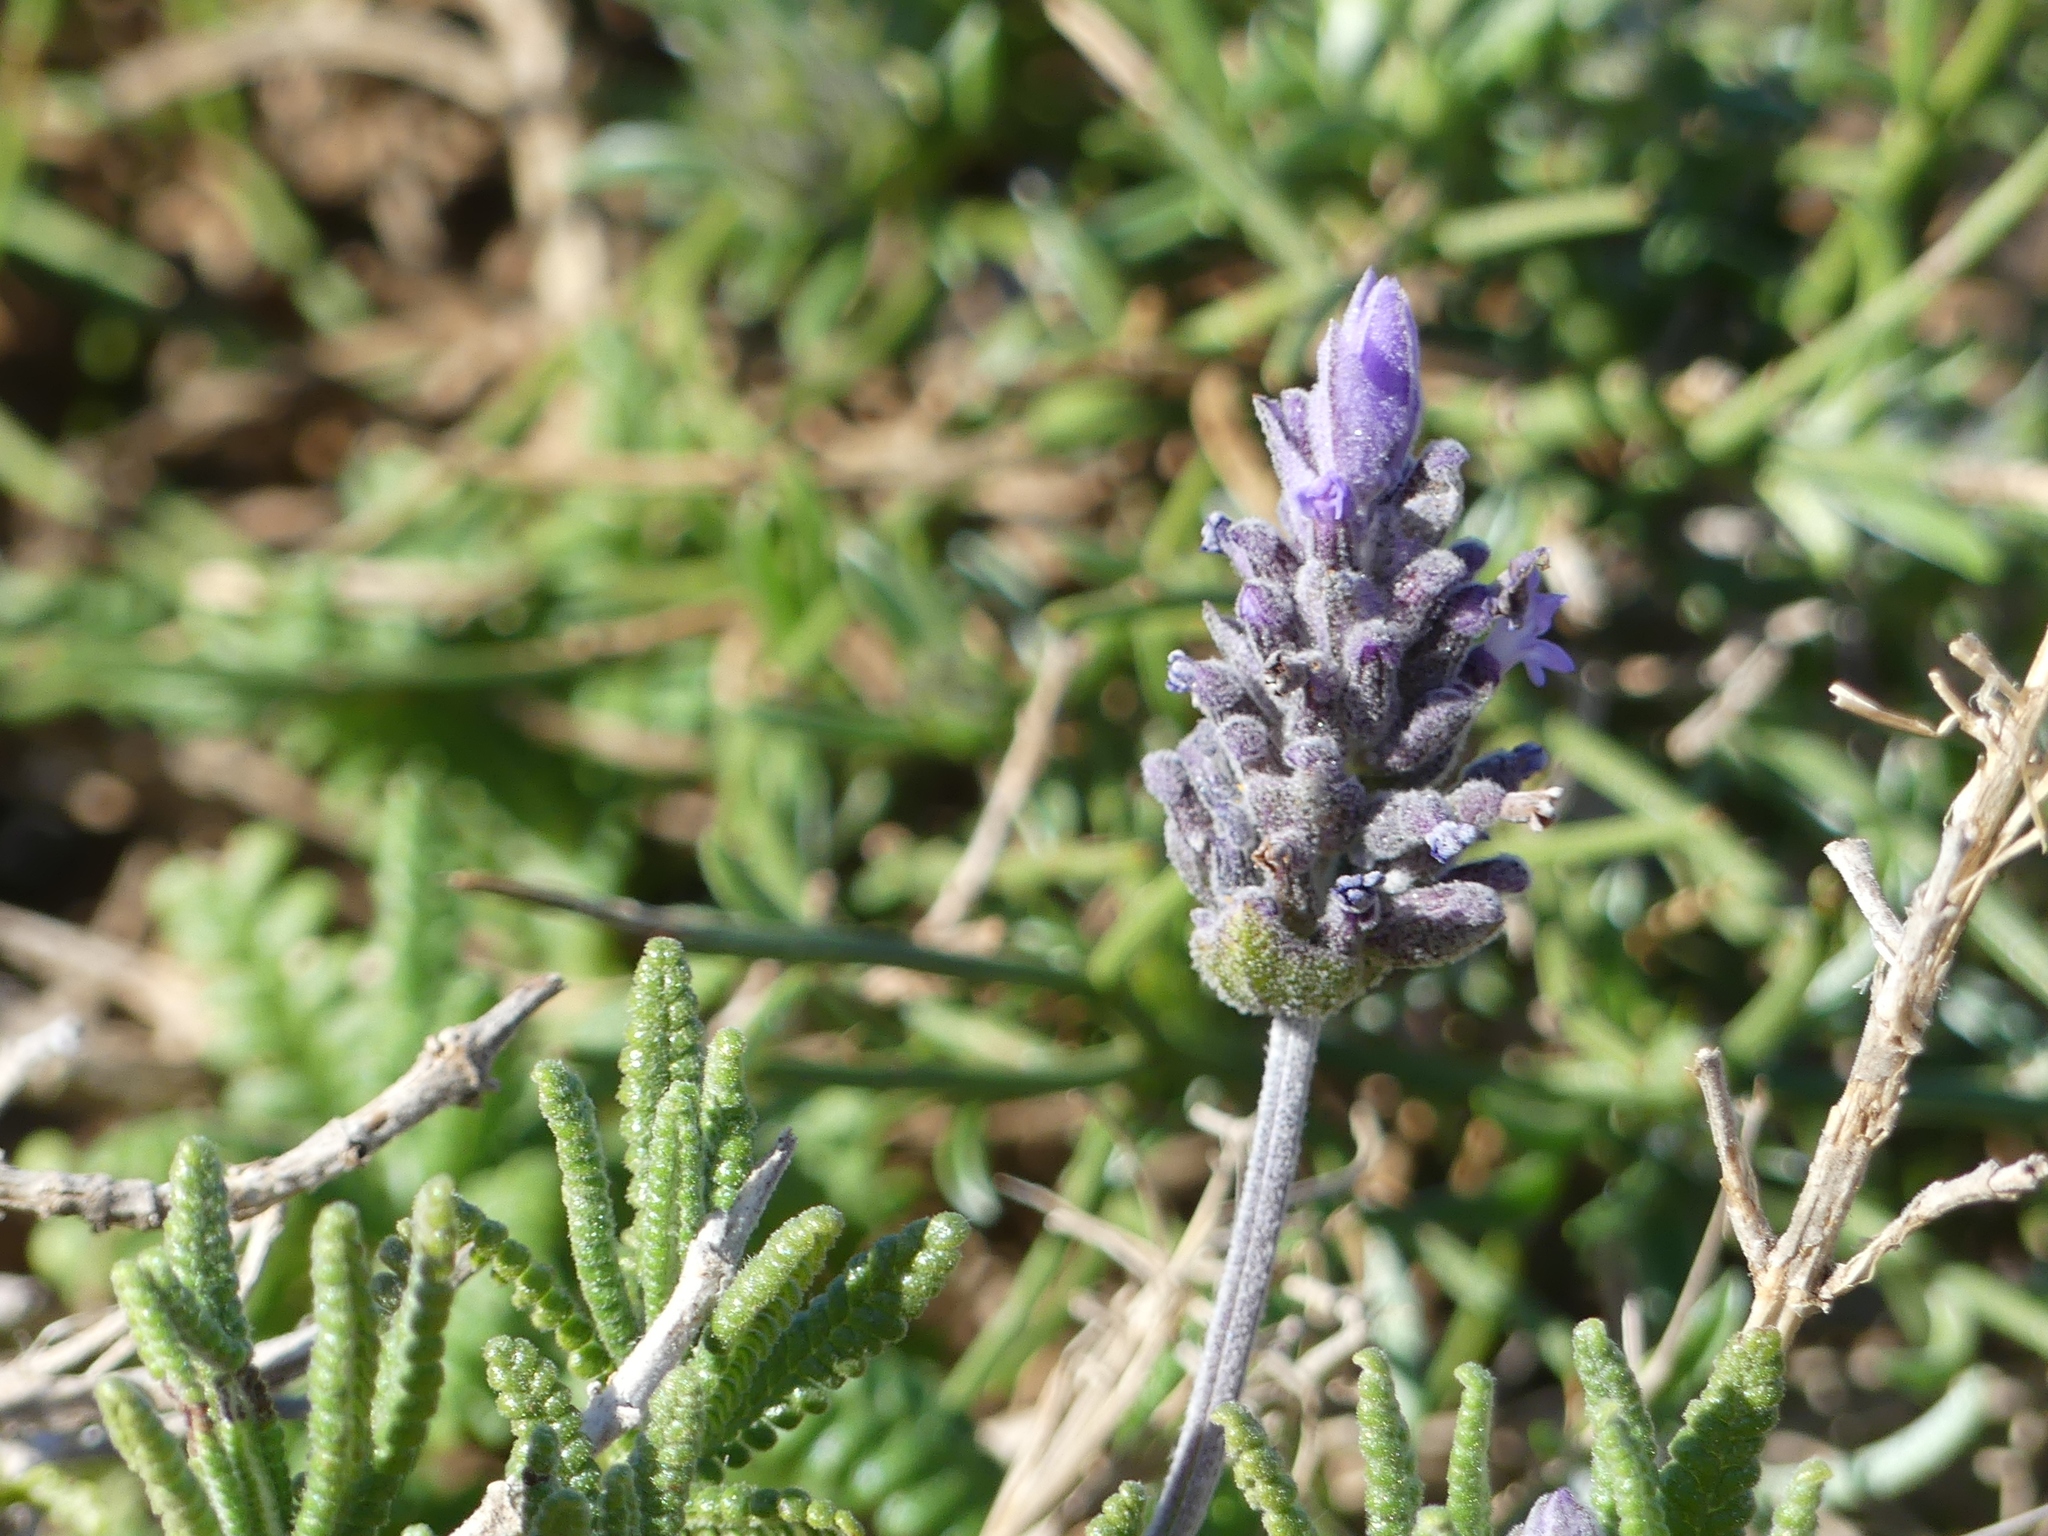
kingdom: Plantae
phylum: Tracheophyta
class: Magnoliopsida
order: Lamiales
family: Lamiaceae
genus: Lavandula
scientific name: Lavandula dentata
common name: French lavender
